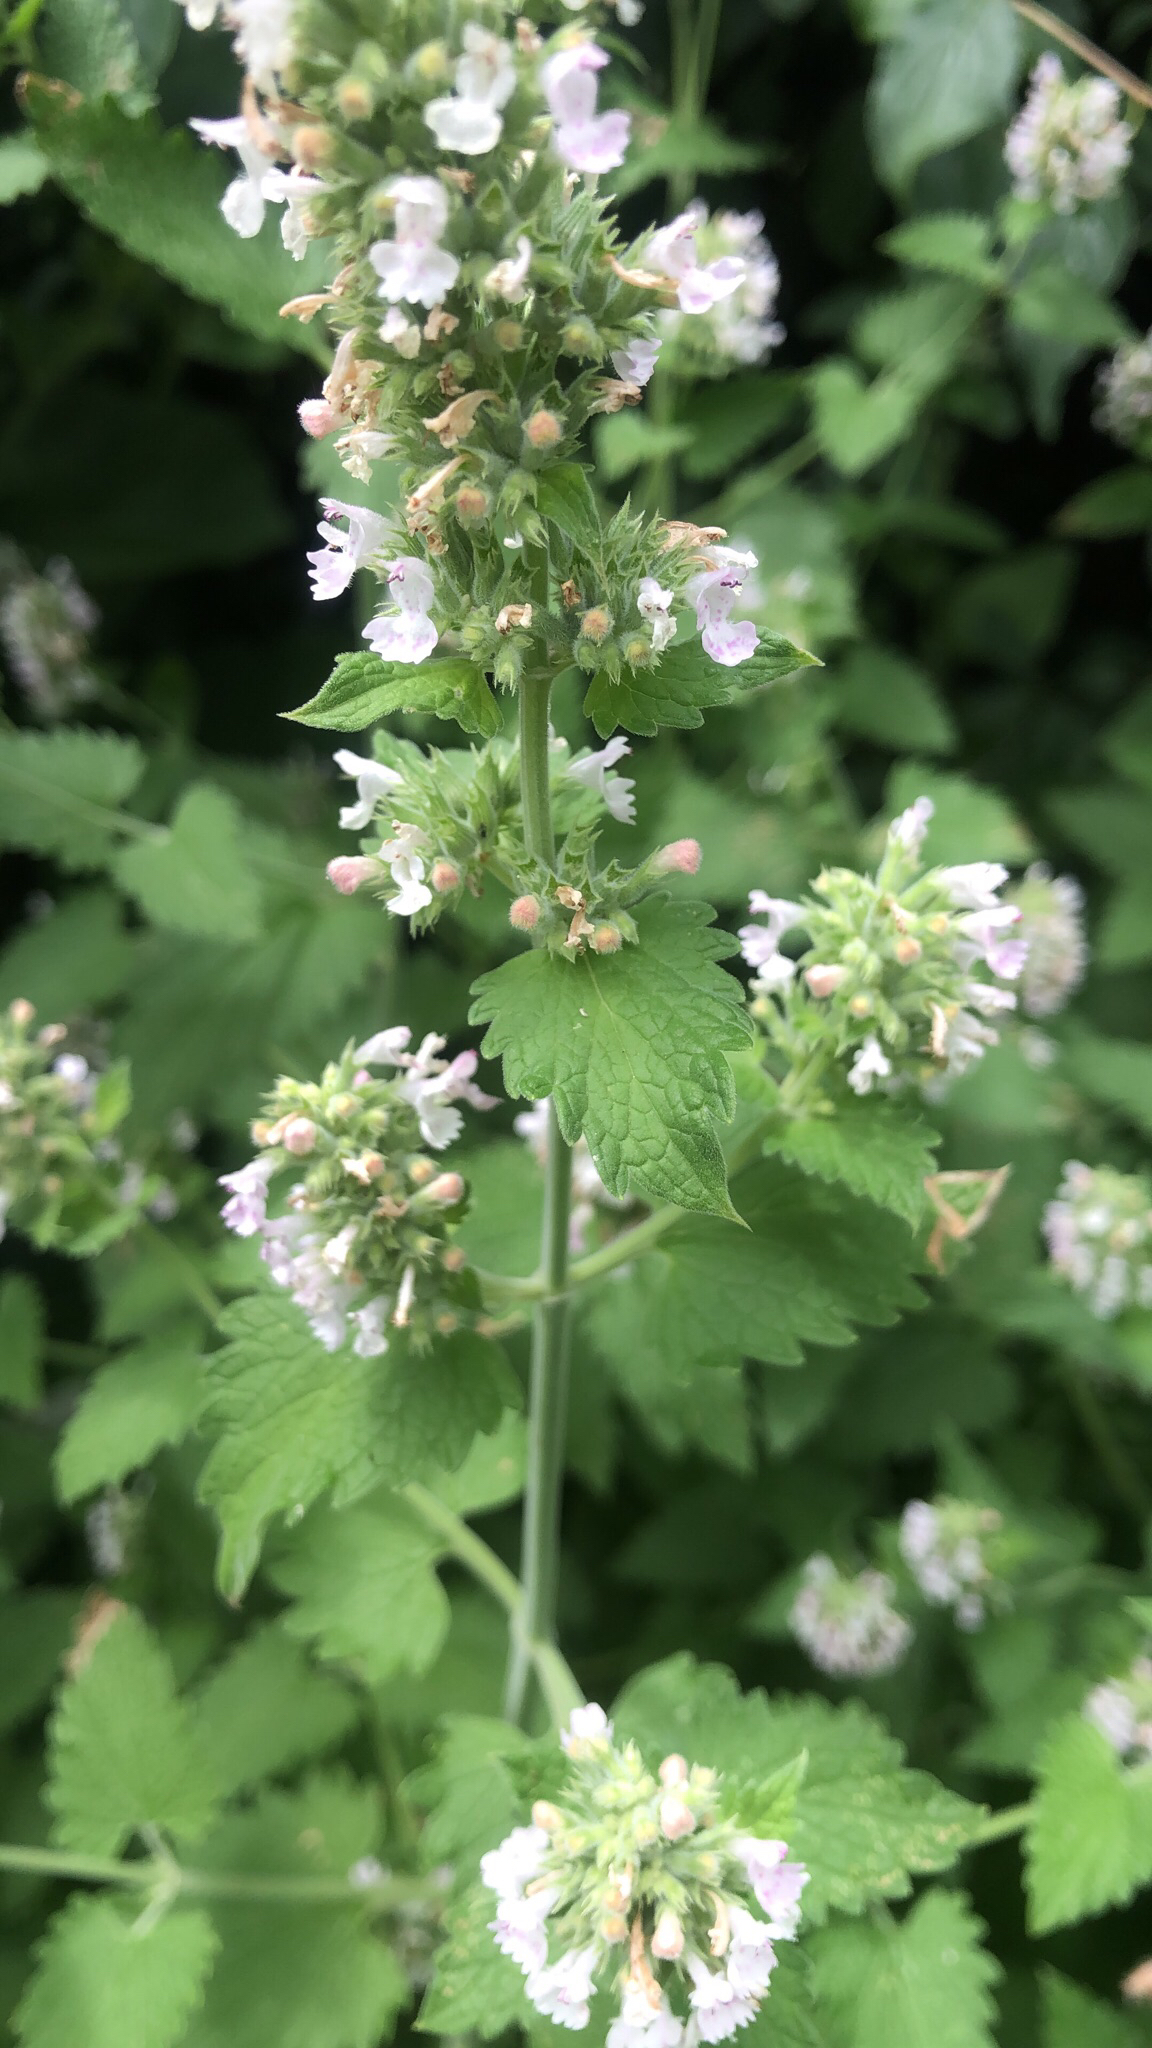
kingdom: Plantae
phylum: Tracheophyta
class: Magnoliopsida
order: Lamiales
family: Lamiaceae
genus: Nepeta
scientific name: Nepeta cataria
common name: Catnip
